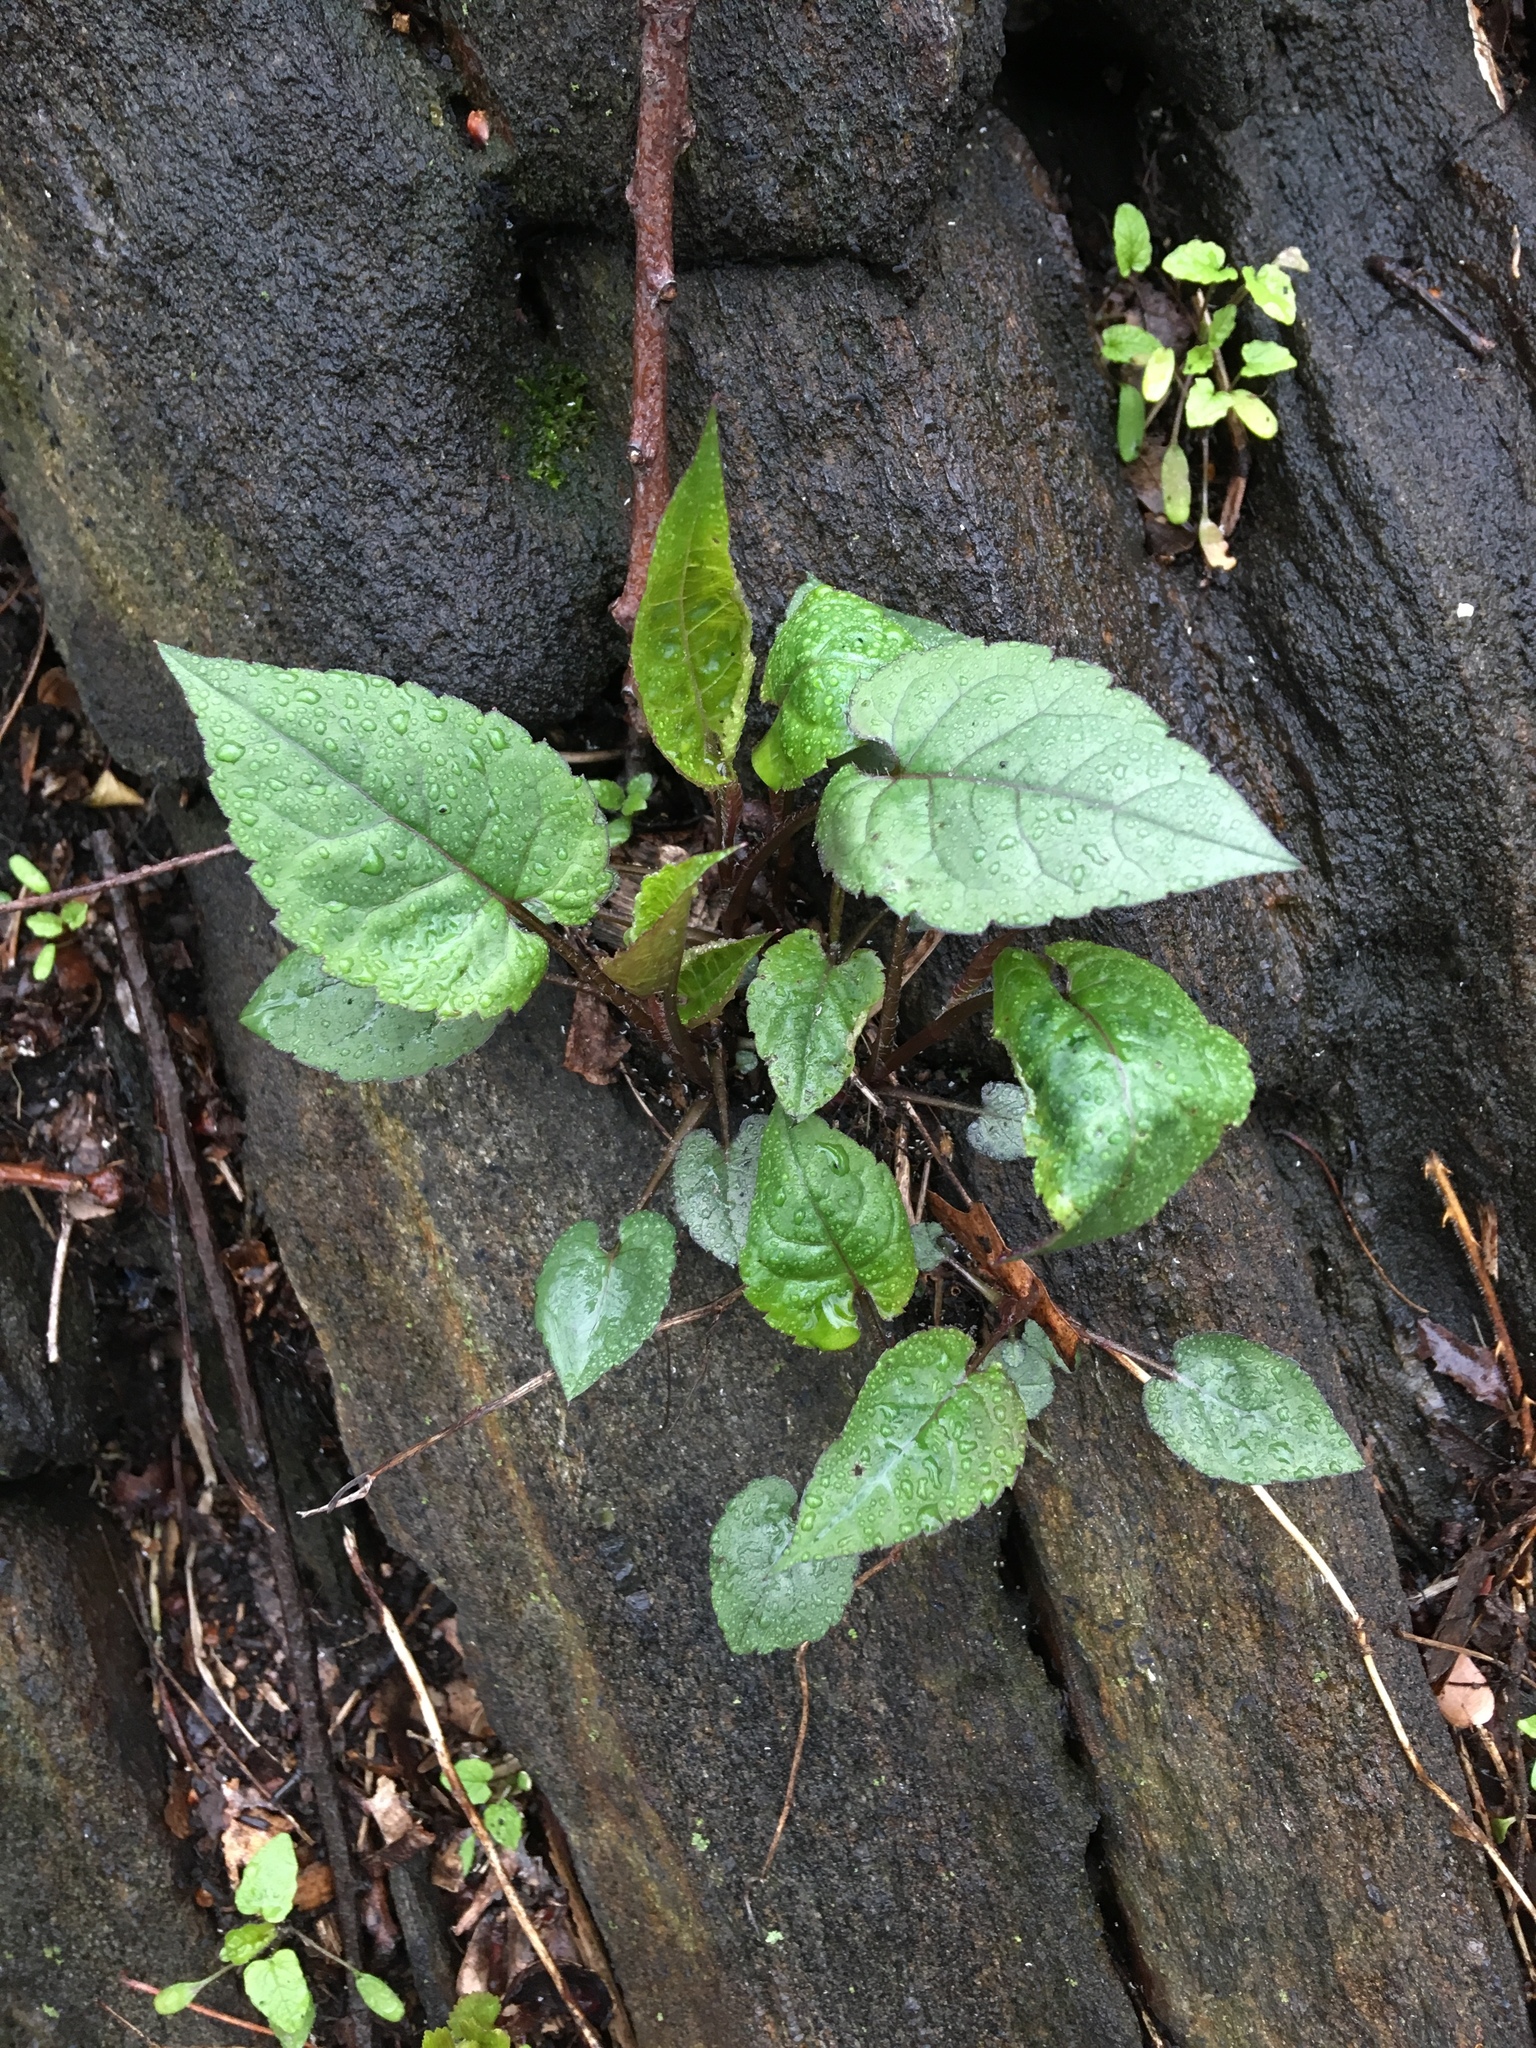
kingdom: Plantae
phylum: Tracheophyta
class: Magnoliopsida
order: Asterales
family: Asteraceae
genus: Eurybia
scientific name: Eurybia divaricata
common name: White wood aster
